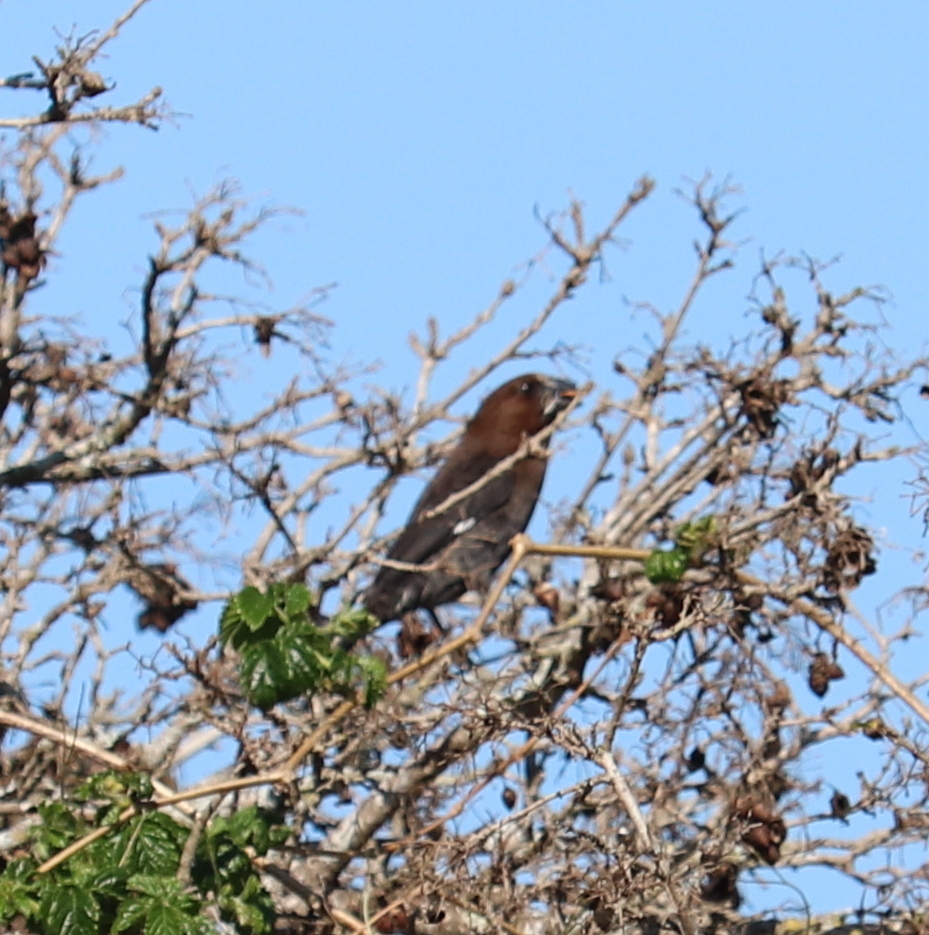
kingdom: Animalia
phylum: Chordata
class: Aves
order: Passeriformes
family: Ploceidae
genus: Amblyospiza
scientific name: Amblyospiza albifrons
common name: Thick-billed weaver
